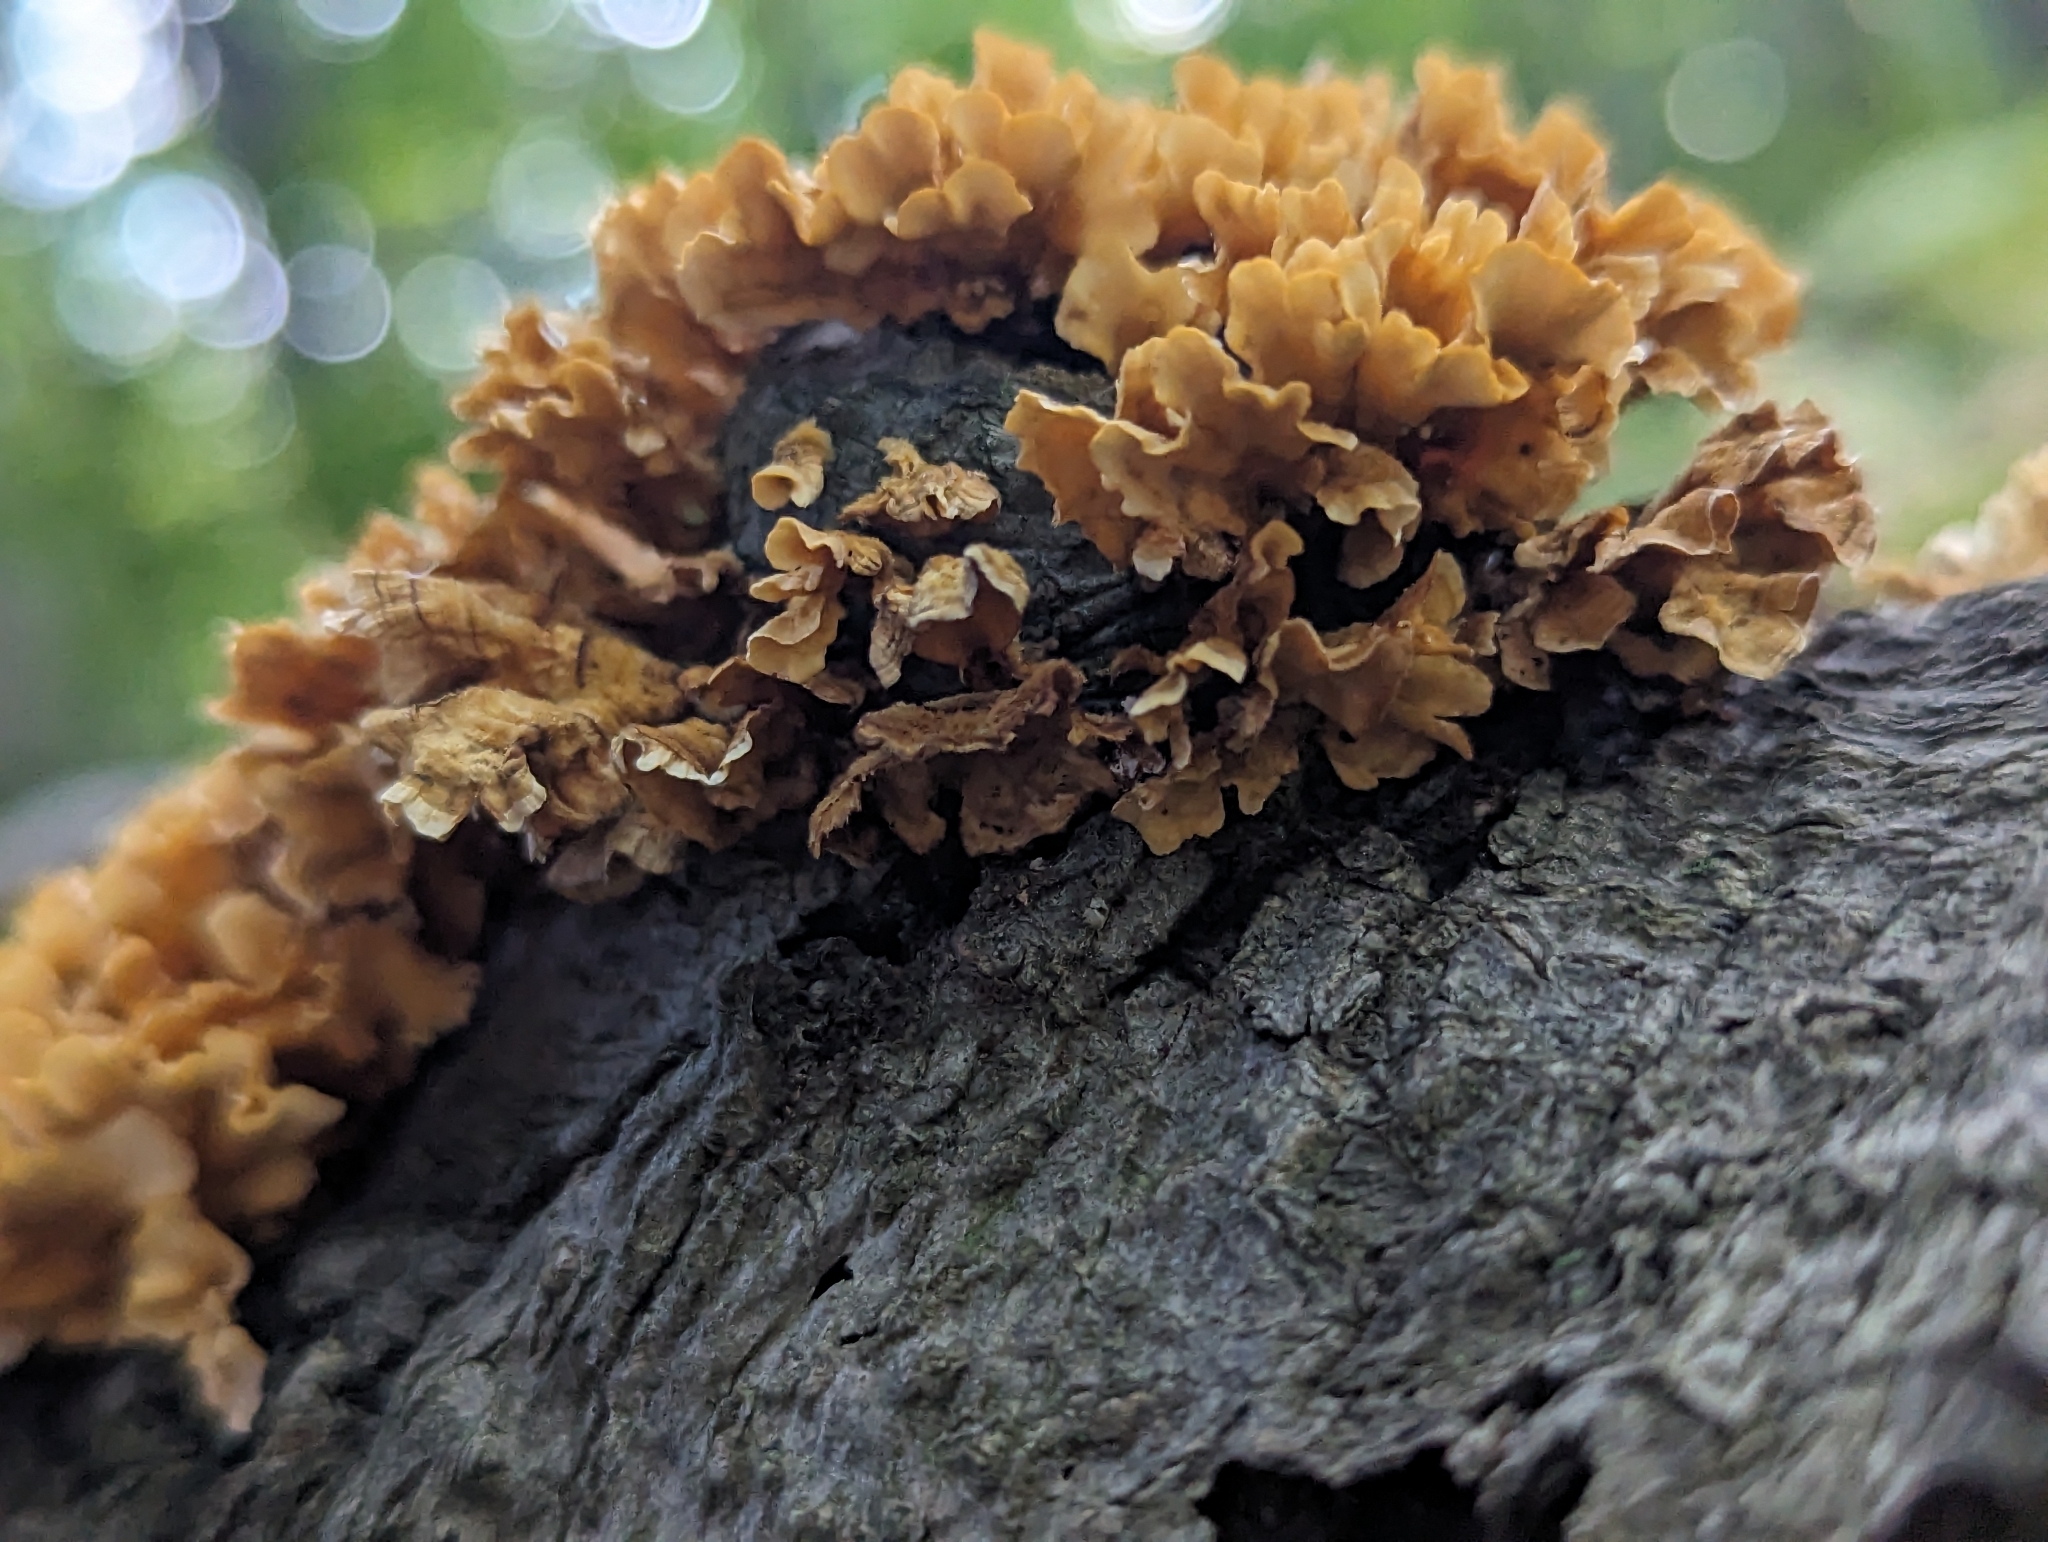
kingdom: Fungi
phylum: Basidiomycota
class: Agaricomycetes
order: Russulales
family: Stereaceae
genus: Stereum
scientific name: Stereum complicatum
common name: Crowded parchment
